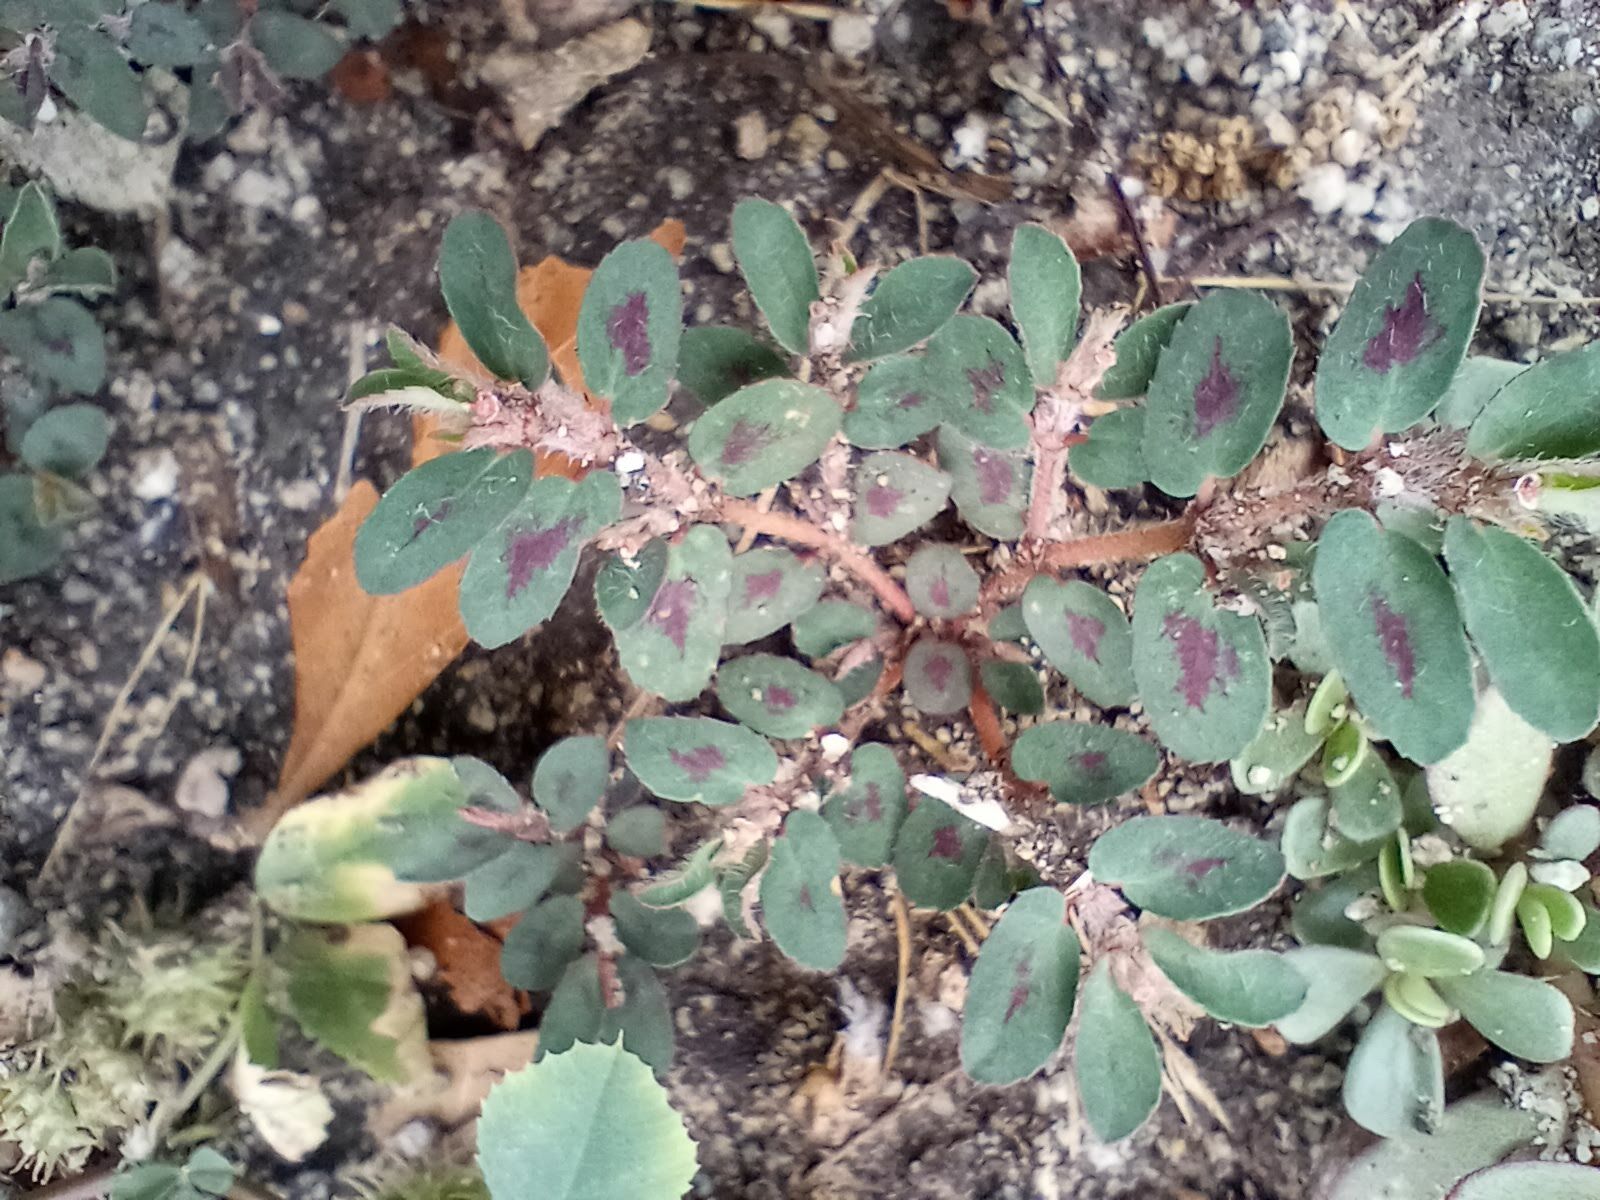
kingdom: Plantae
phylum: Tracheophyta
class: Magnoliopsida
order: Malpighiales
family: Euphorbiaceae
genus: Euphorbia
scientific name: Euphorbia maculata
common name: Spotted spurge
